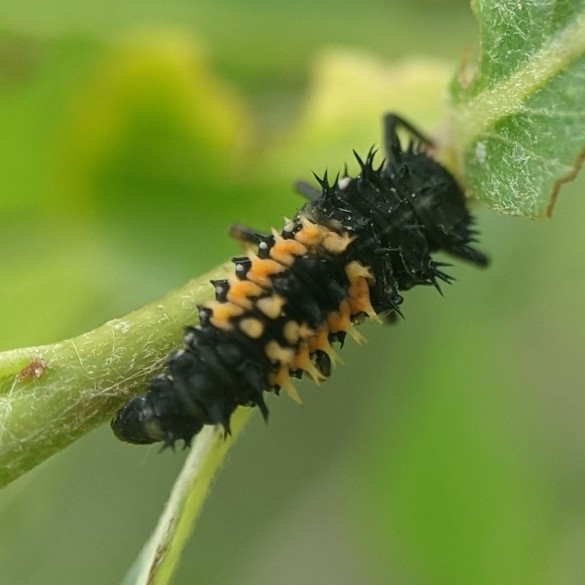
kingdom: Animalia
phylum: Arthropoda
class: Insecta
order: Coleoptera
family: Coccinellidae
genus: Harmonia
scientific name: Harmonia axyridis
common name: Harlequin ladybird
